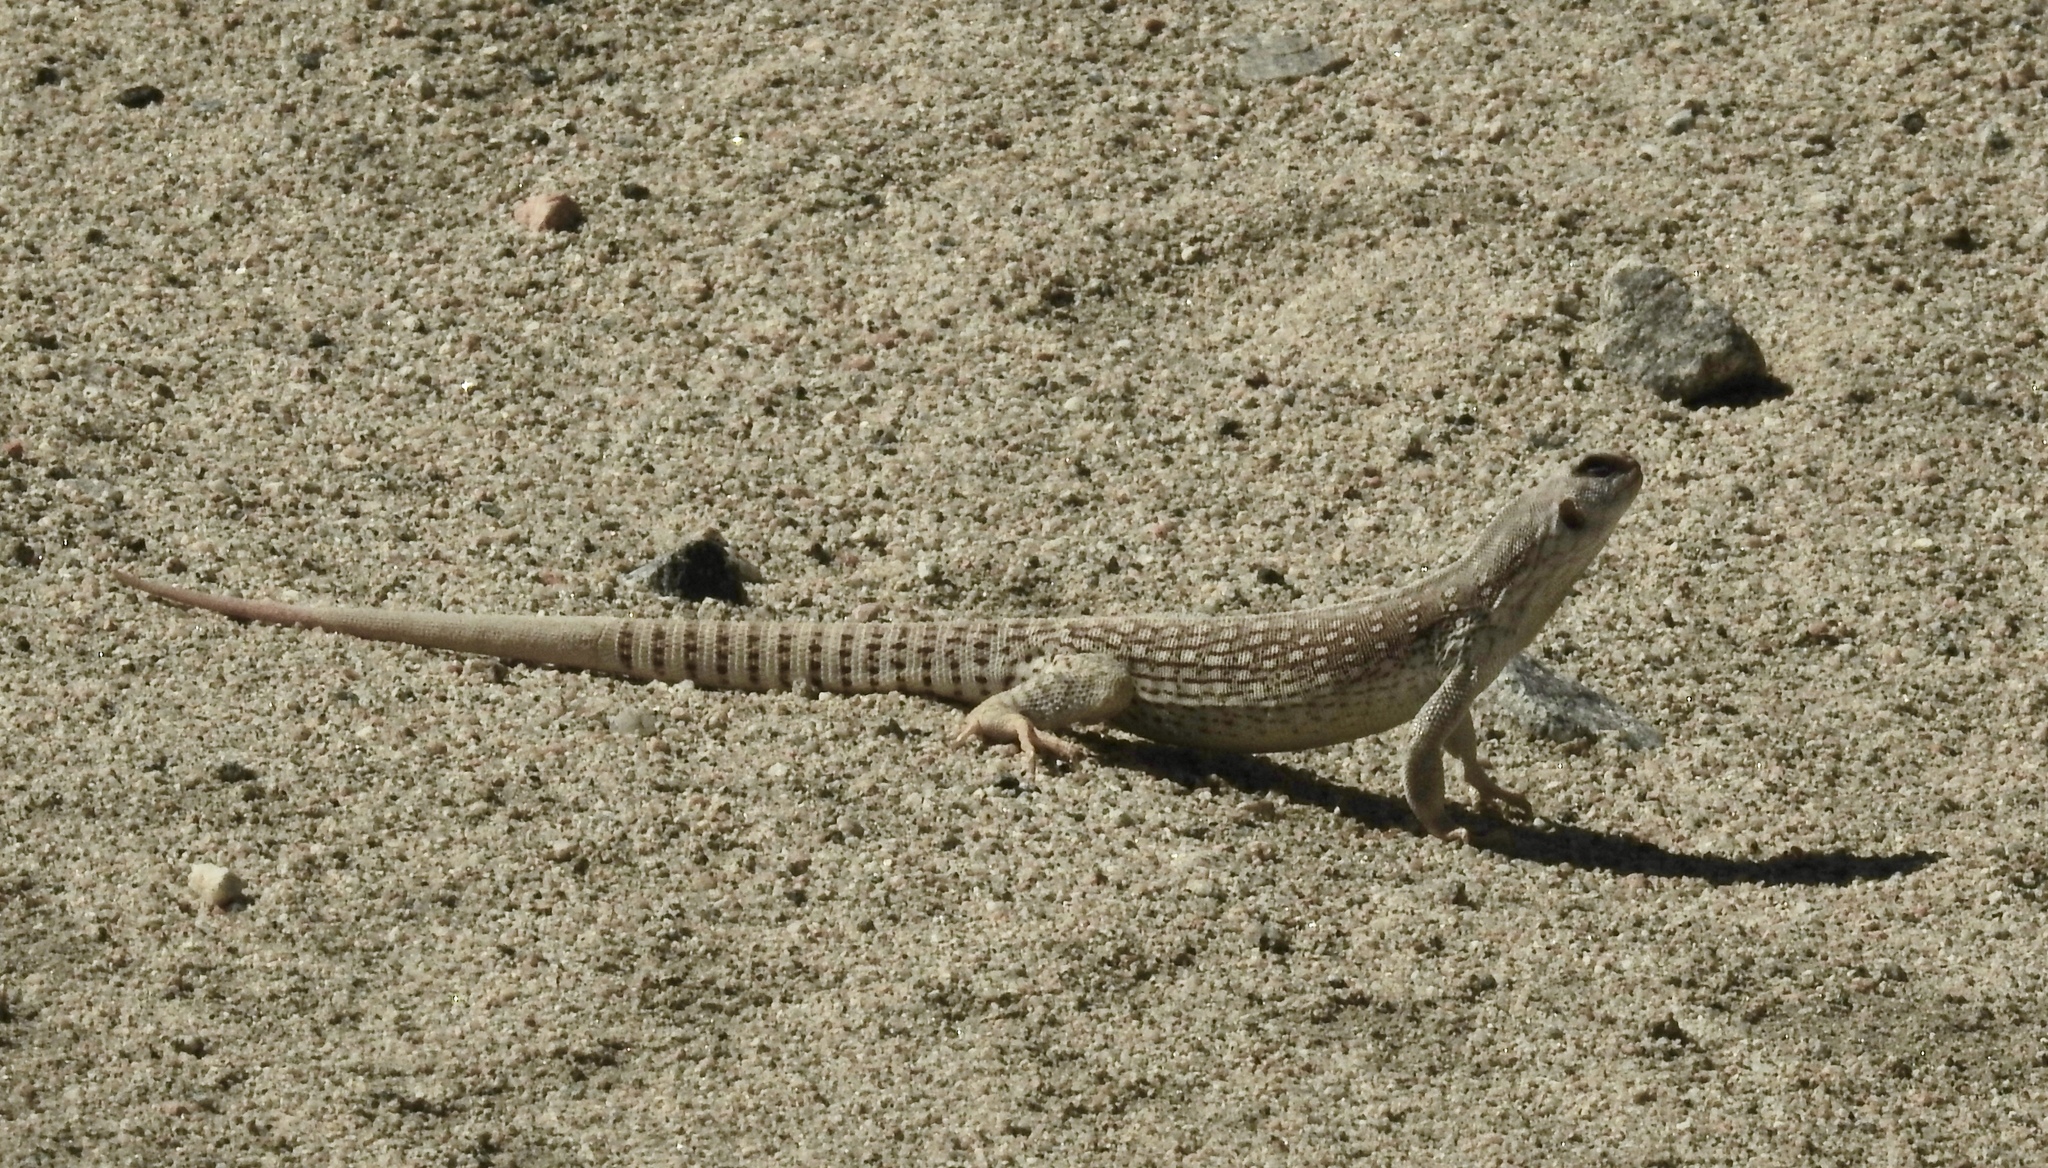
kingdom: Animalia
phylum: Chordata
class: Squamata
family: Iguanidae
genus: Dipsosaurus
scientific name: Dipsosaurus dorsalis
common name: Desert iguana
